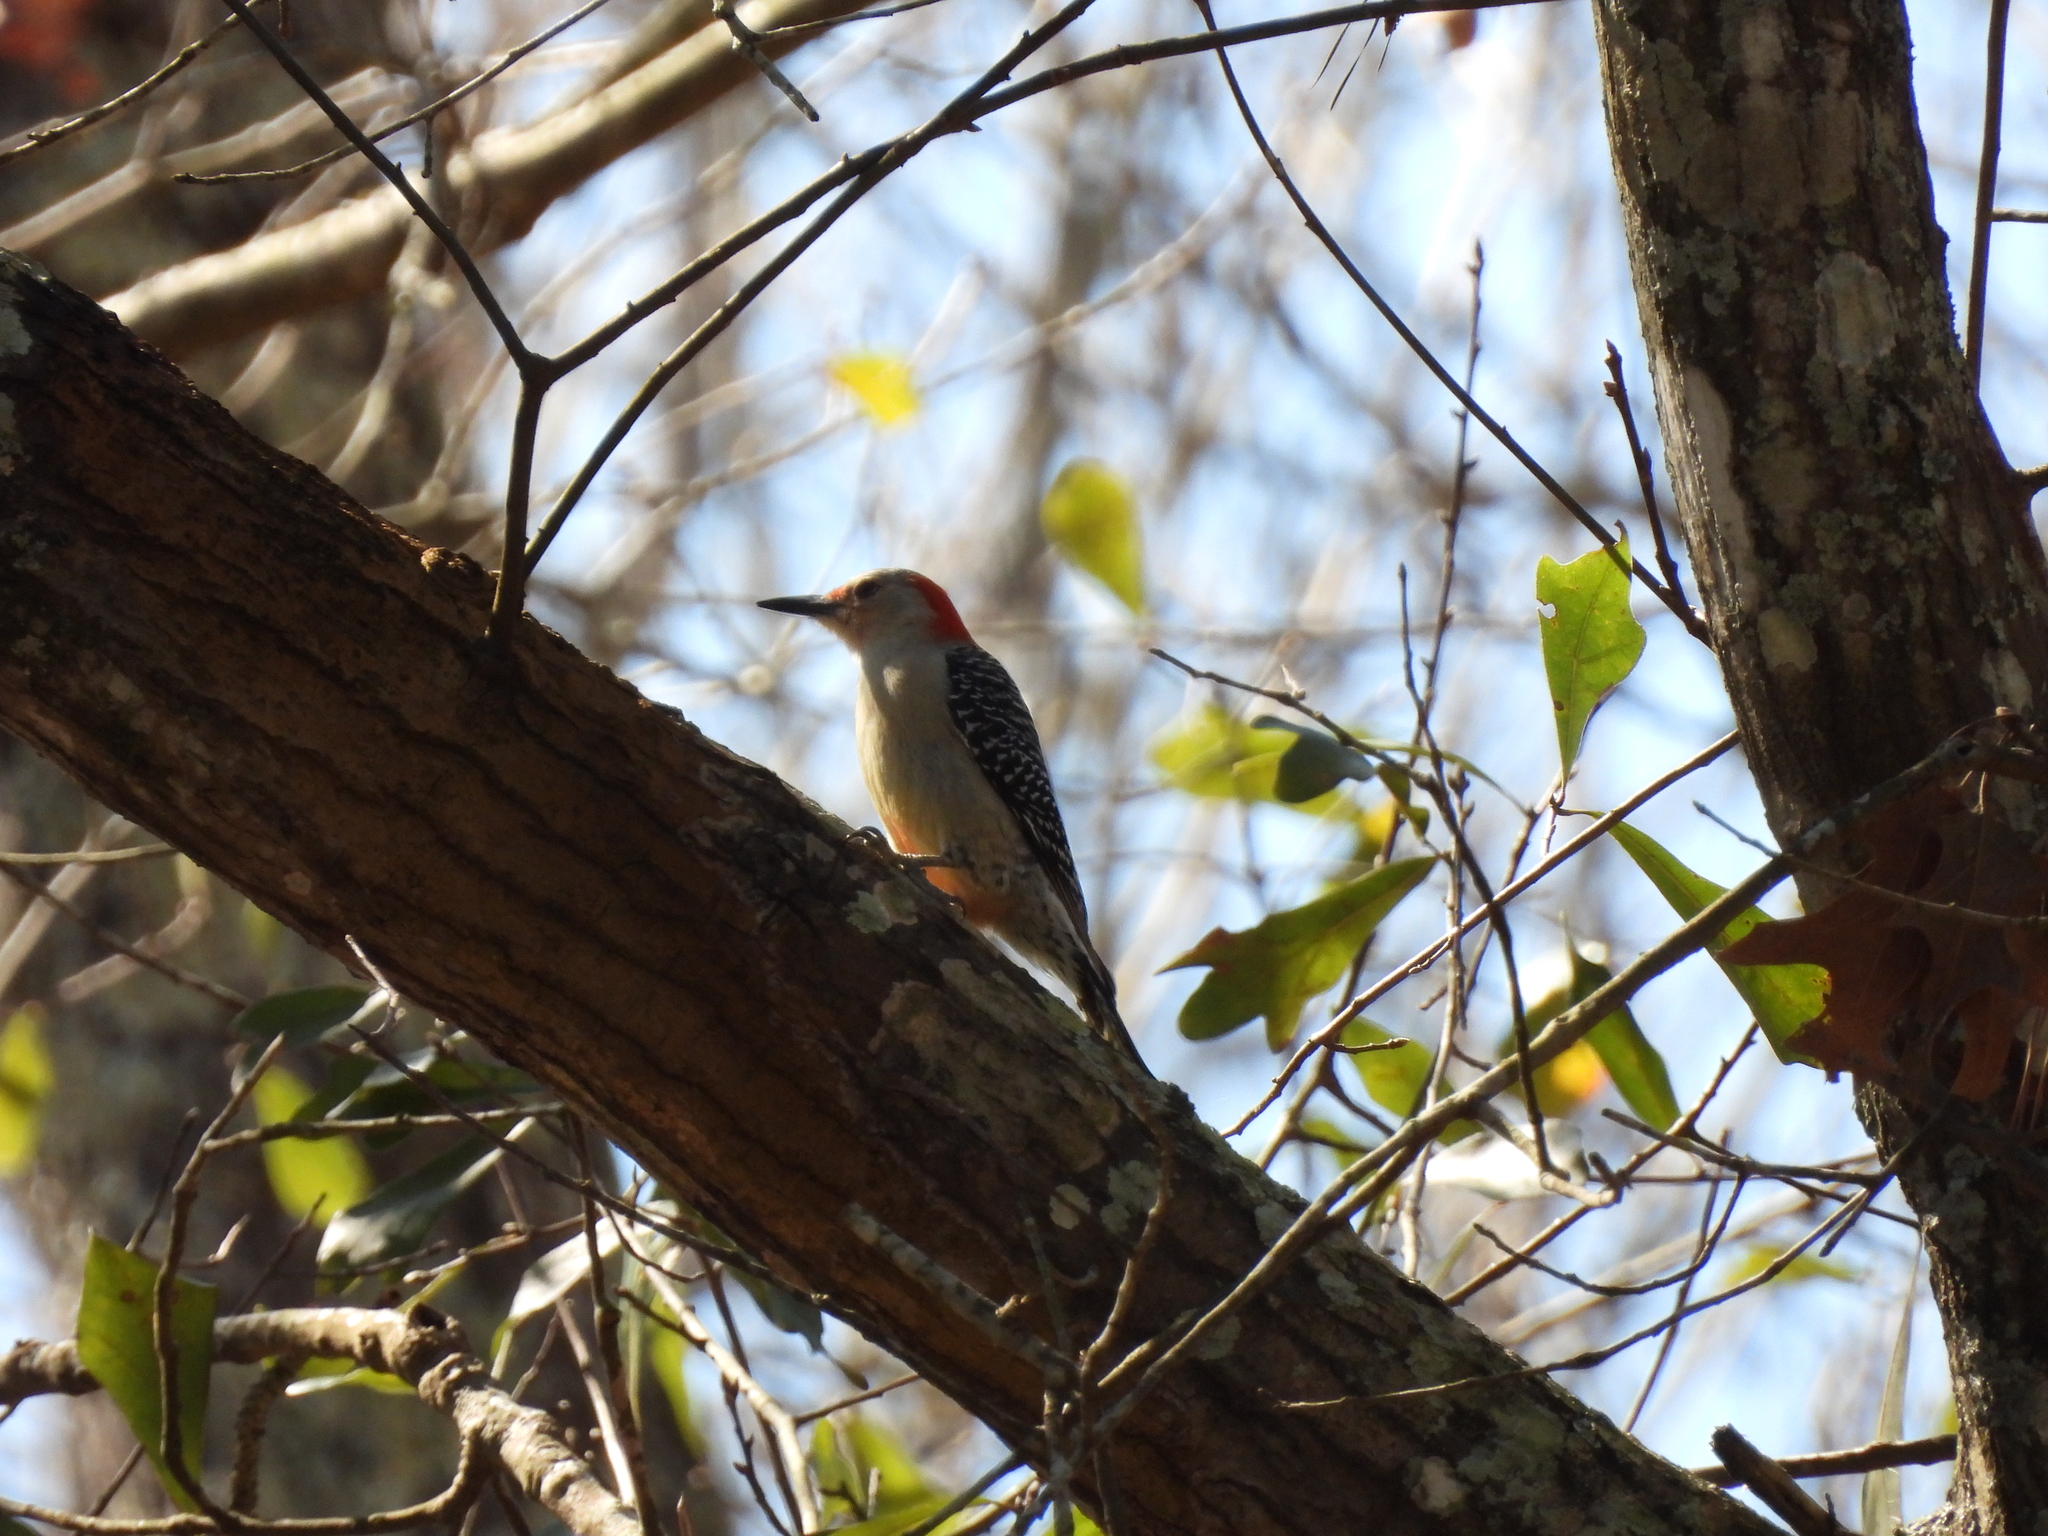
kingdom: Animalia
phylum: Chordata
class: Aves
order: Piciformes
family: Picidae
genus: Melanerpes
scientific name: Melanerpes carolinus
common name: Red-bellied woodpecker
